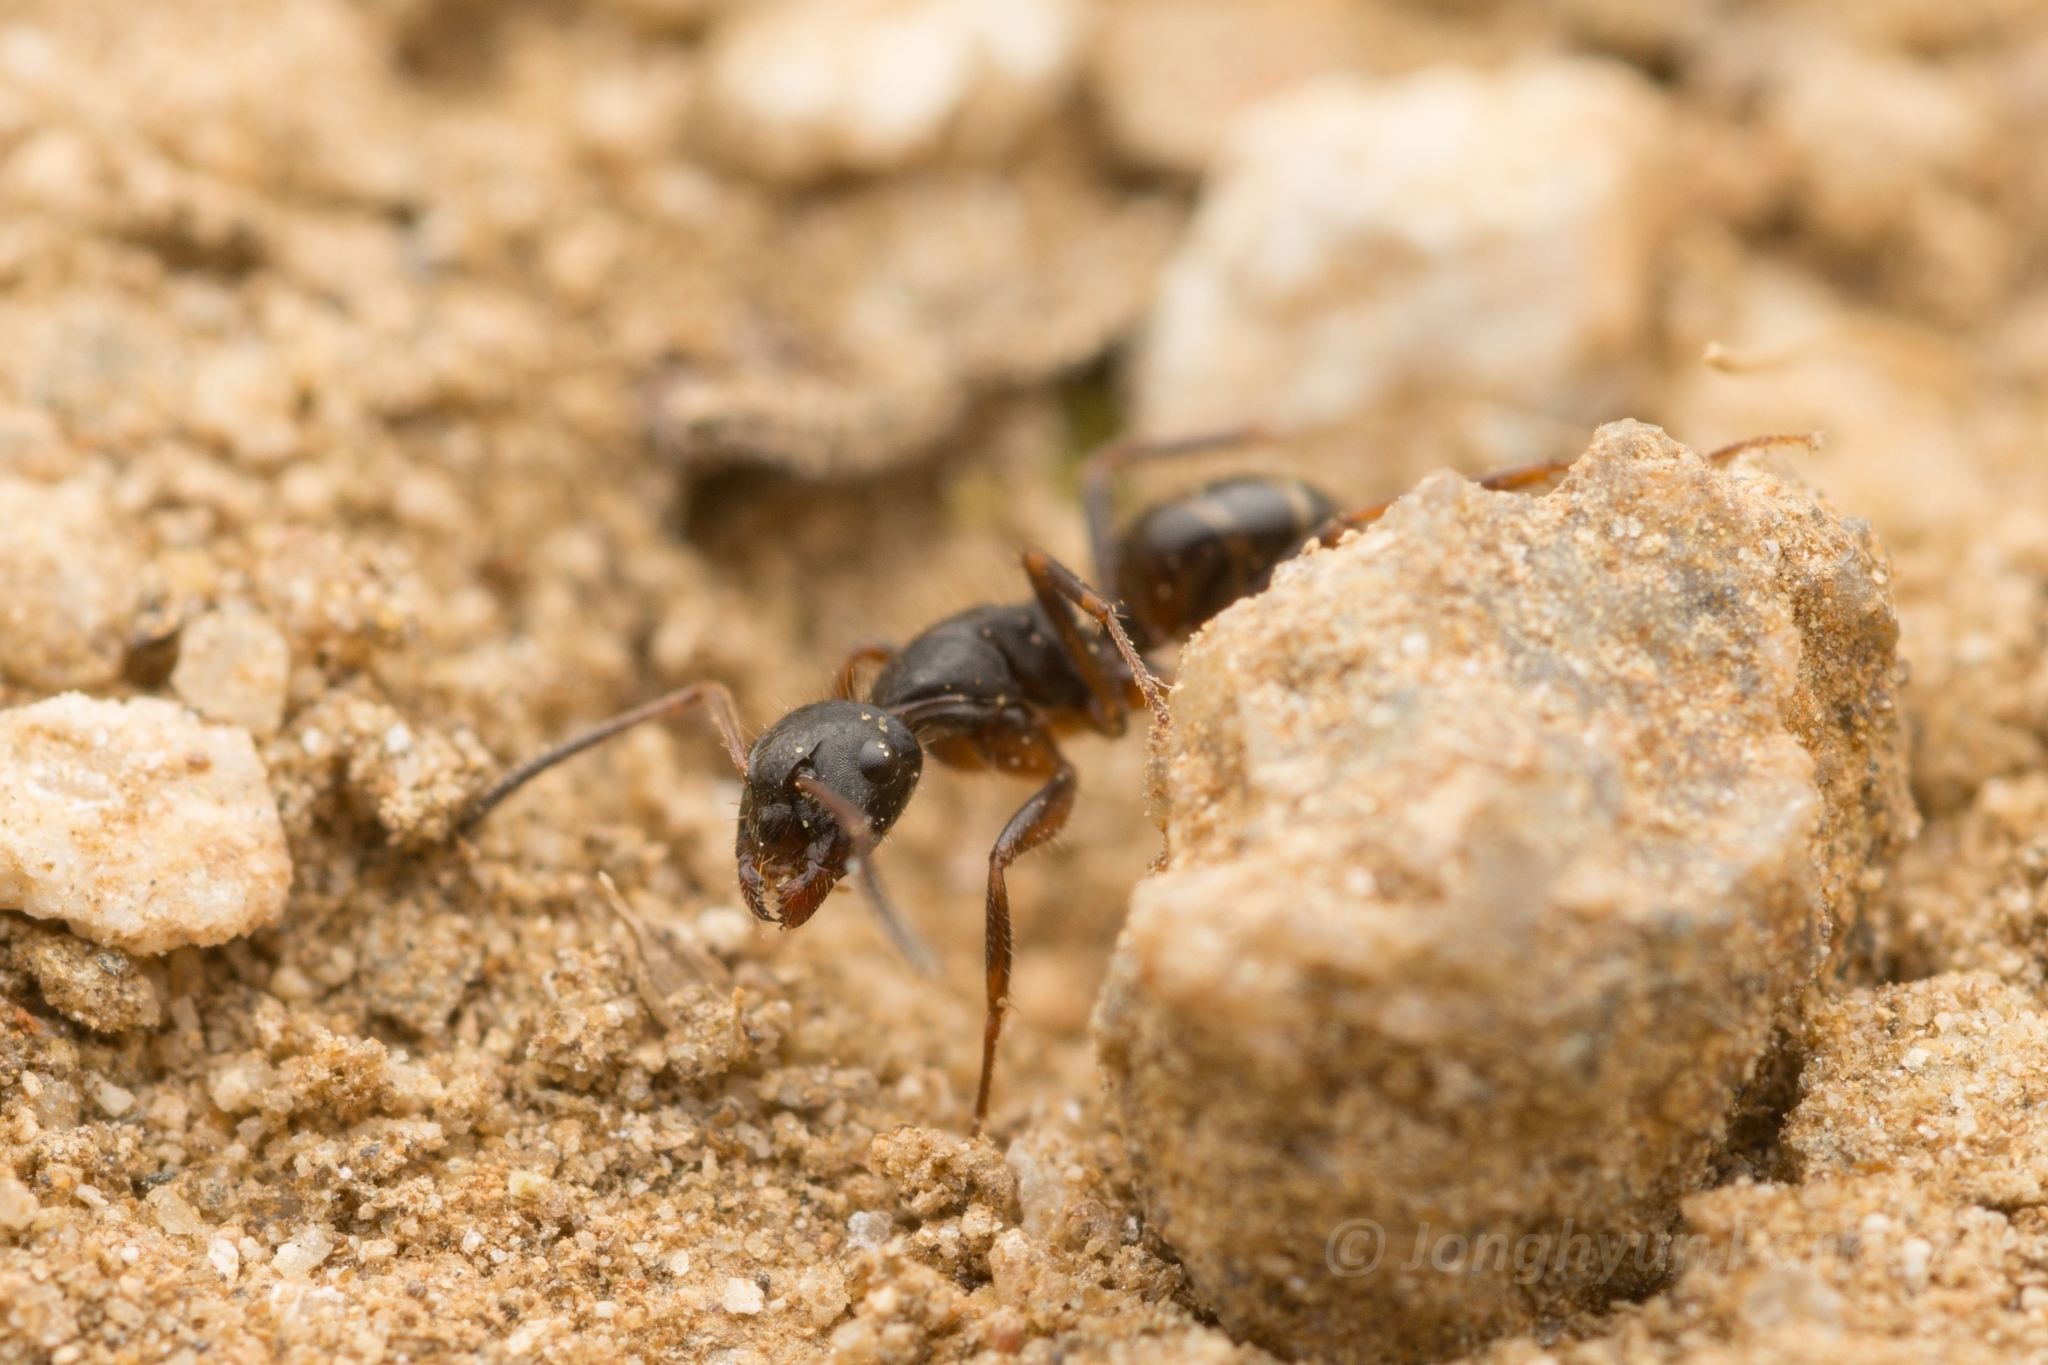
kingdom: Animalia
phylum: Arthropoda
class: Insecta
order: Hymenoptera
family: Formicidae
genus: Camponotus
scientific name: Camponotus nipponensis
